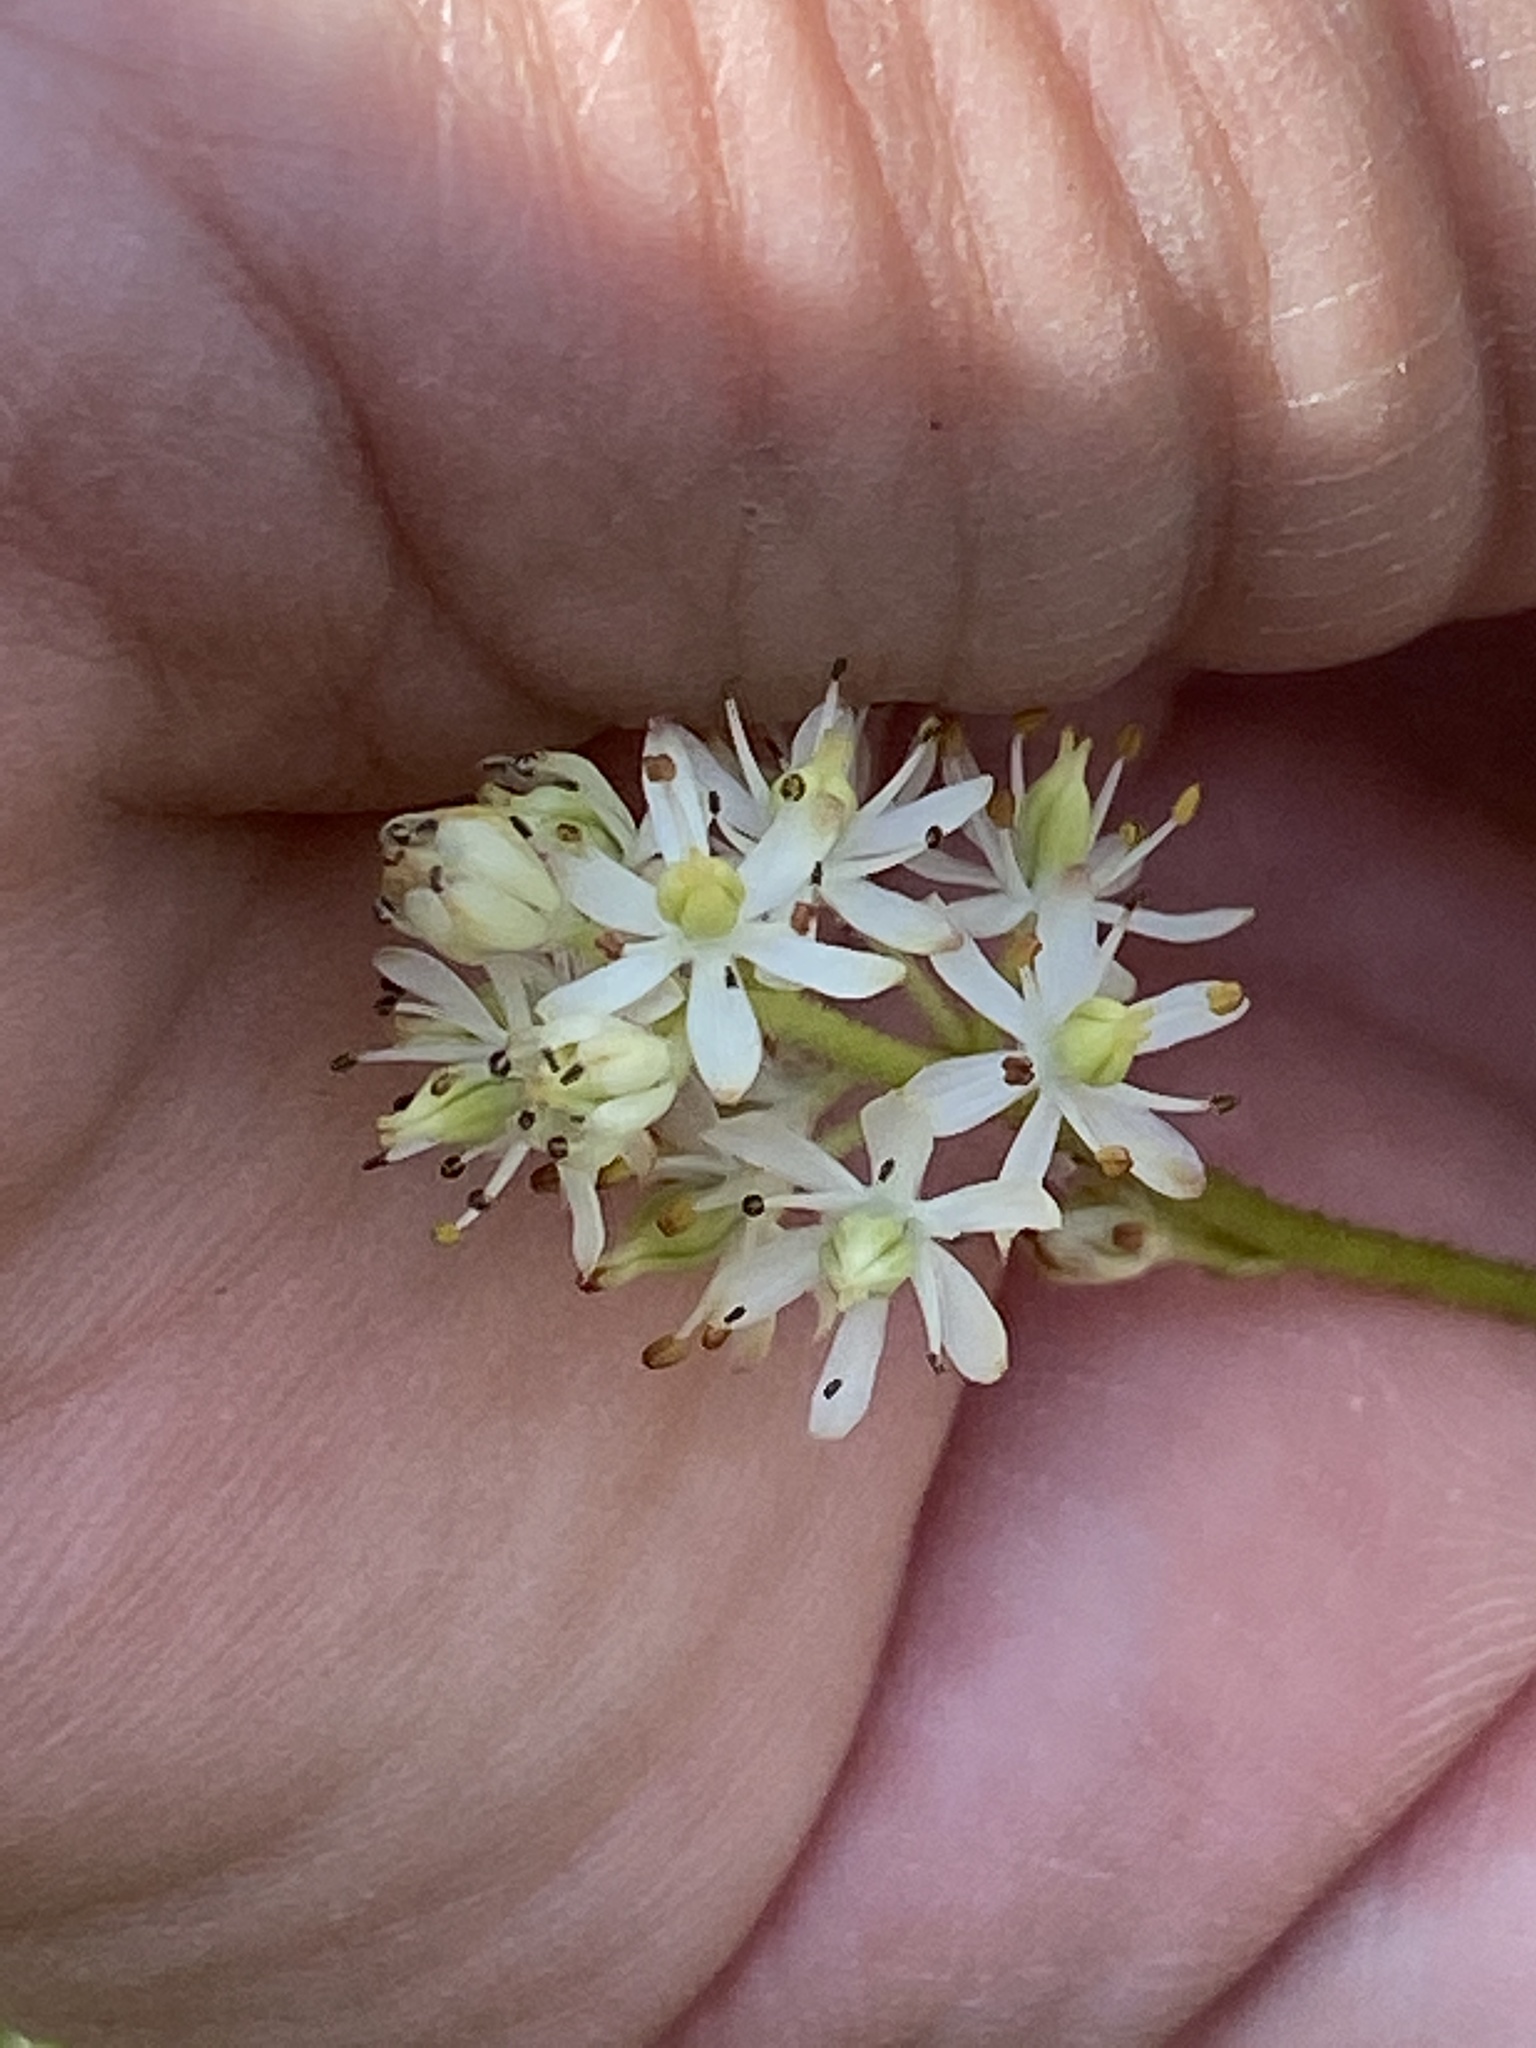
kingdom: Plantae
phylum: Tracheophyta
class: Liliopsida
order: Alismatales
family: Tofieldiaceae
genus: Triantha
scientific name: Triantha glutinosa
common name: Glutinous tofieldia
